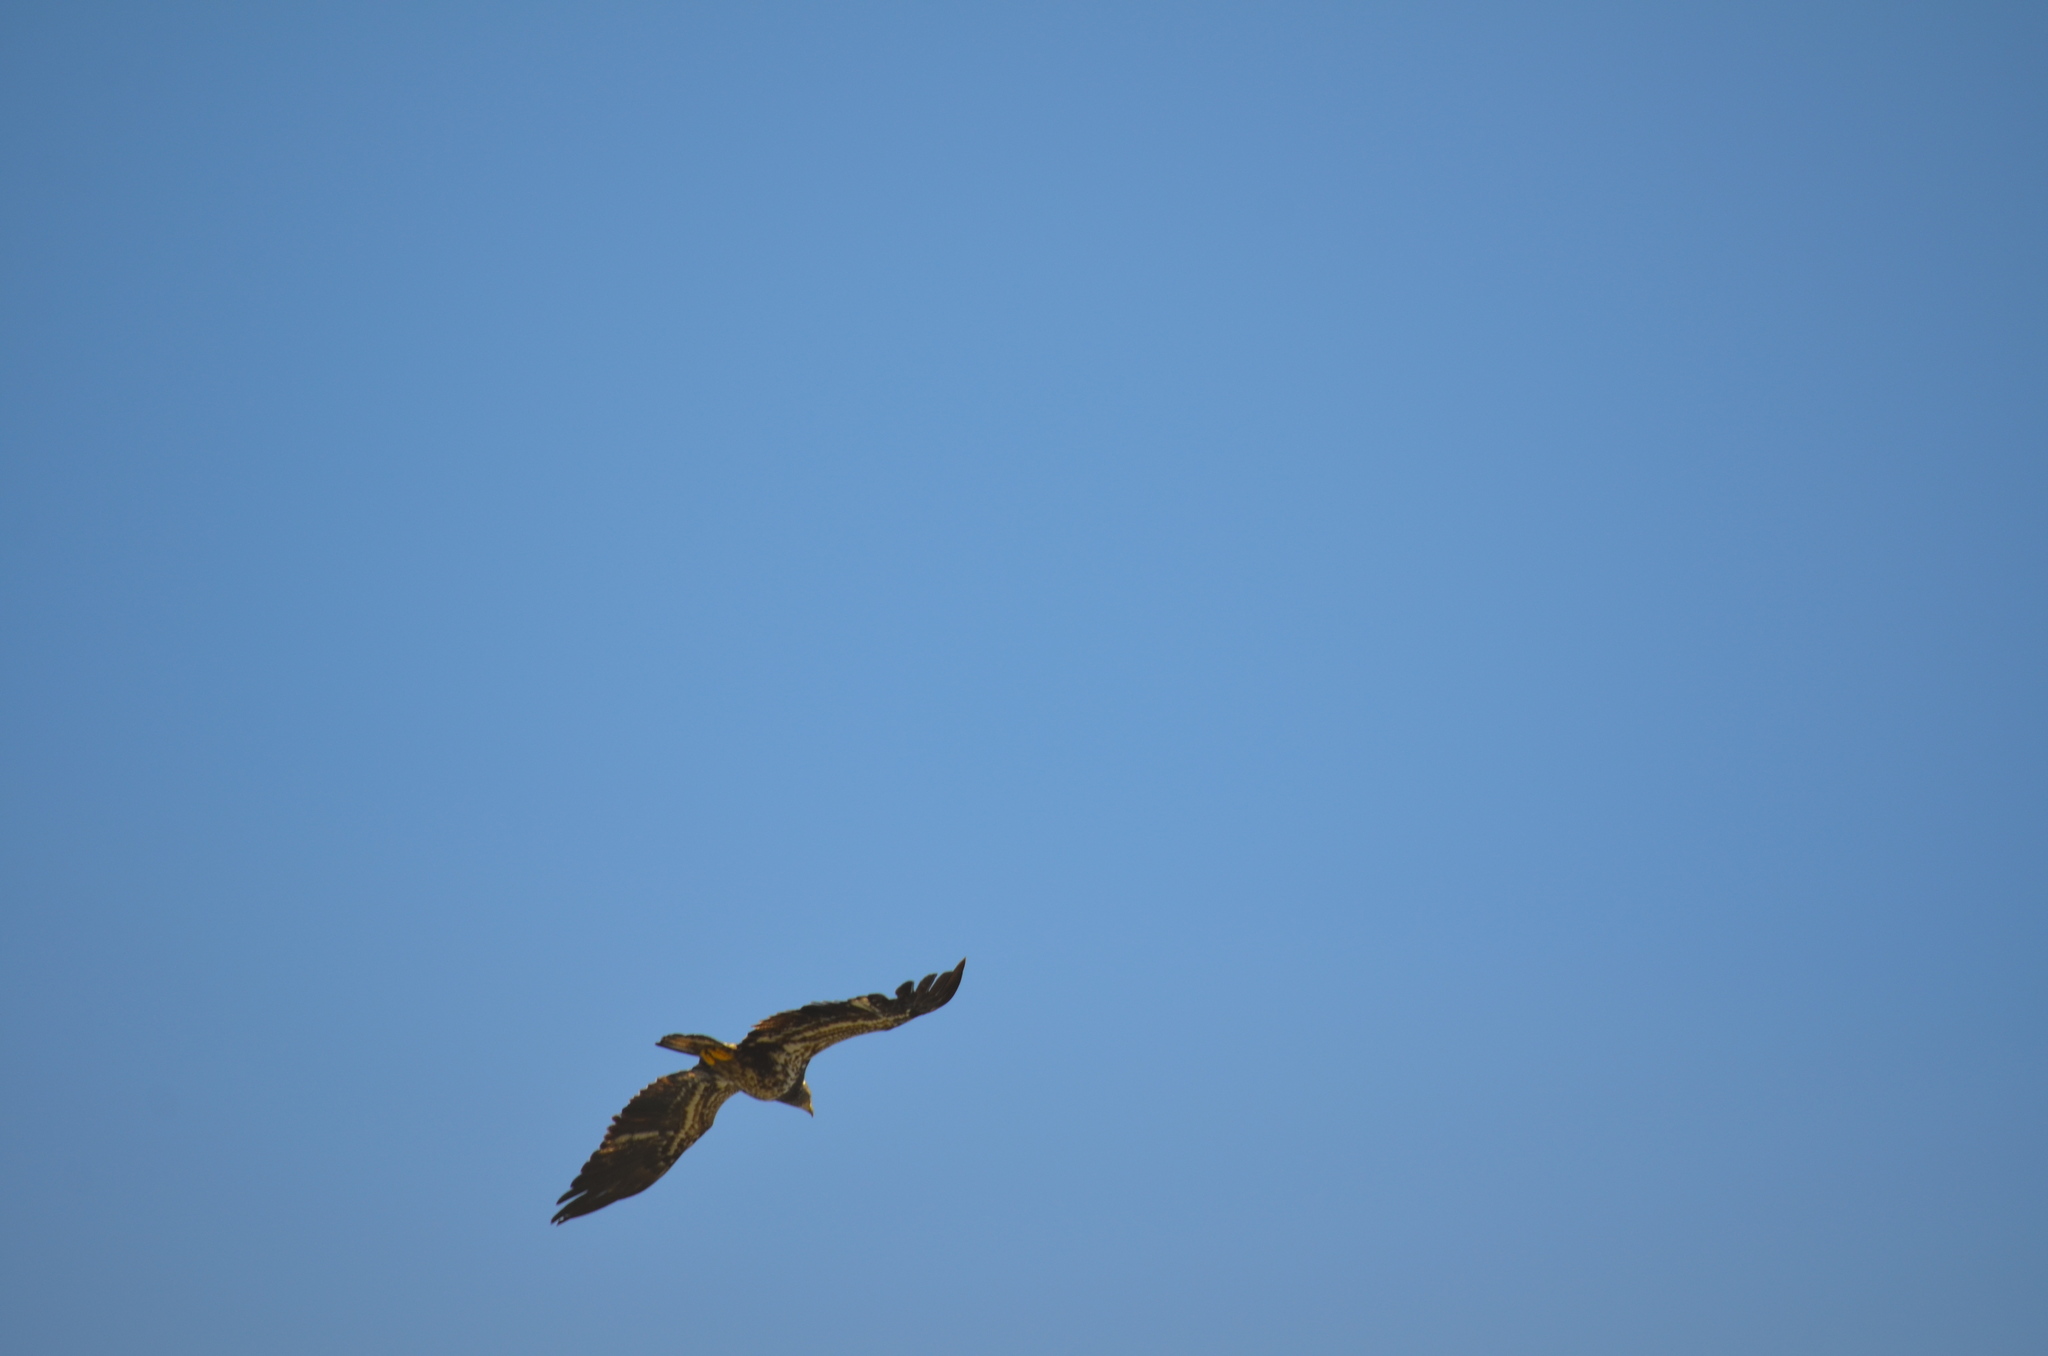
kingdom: Animalia
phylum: Chordata
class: Aves
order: Accipitriformes
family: Accipitridae
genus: Haliaeetus
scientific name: Haliaeetus leucocephalus
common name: Bald eagle
